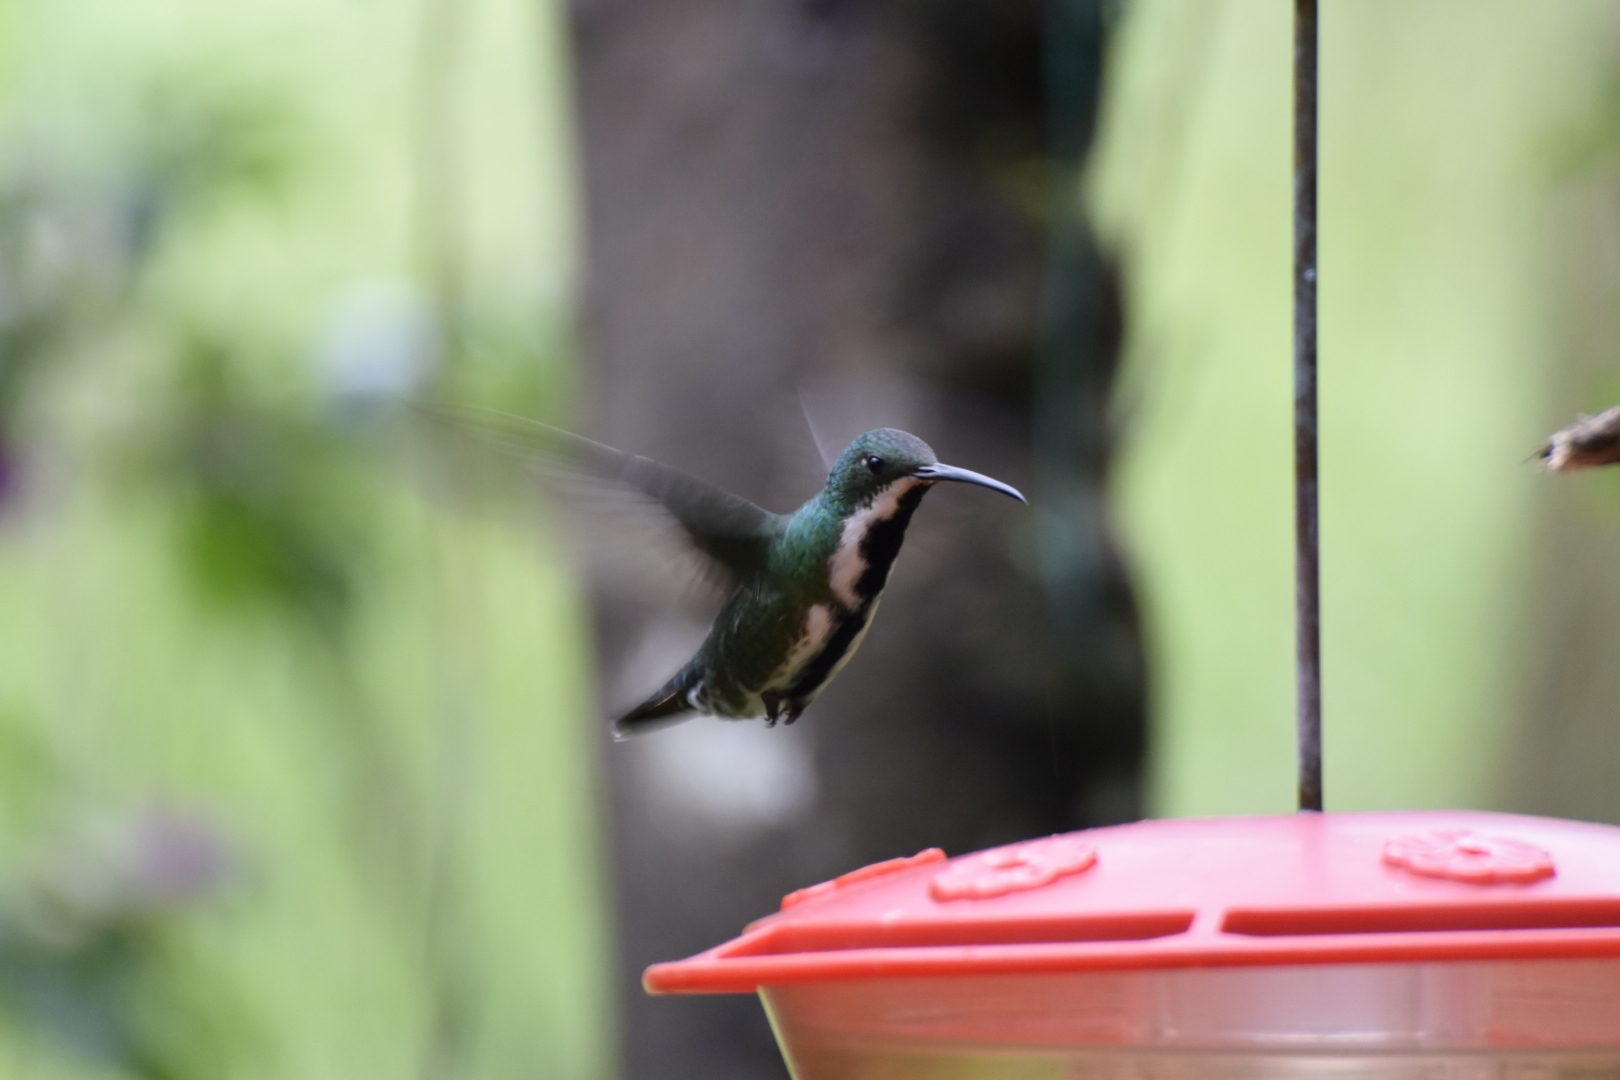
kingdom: Animalia
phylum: Chordata
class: Aves
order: Apodiformes
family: Trochilidae
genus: Anthracothorax
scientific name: Anthracothorax nigricollis
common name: Black-throated mango
